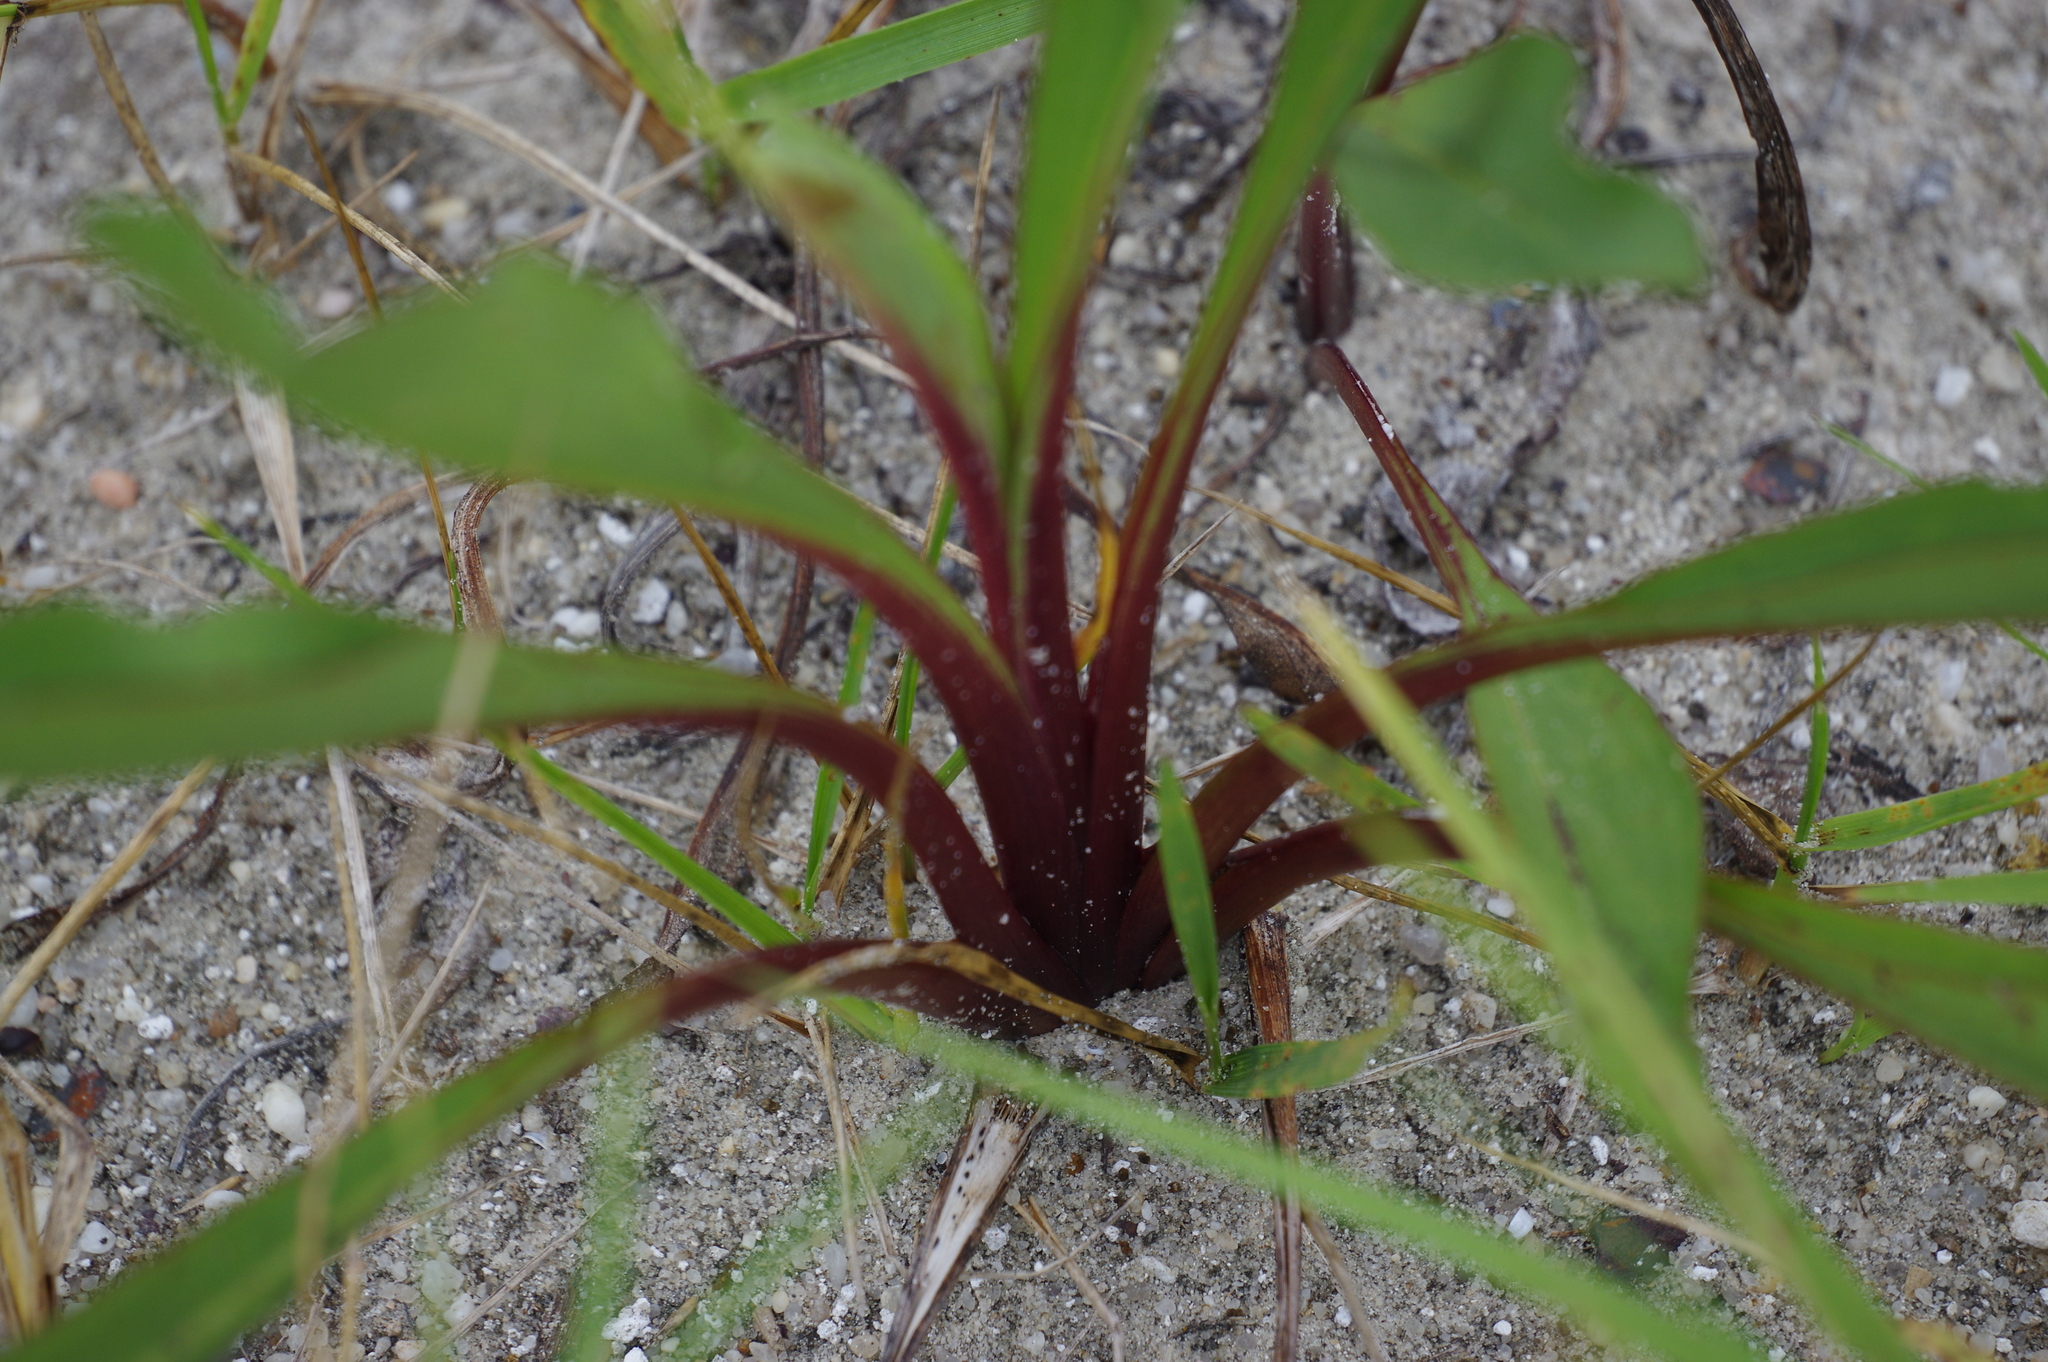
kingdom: Plantae
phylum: Tracheophyta
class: Magnoliopsida
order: Asterales
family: Asteraceae
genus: Solidago
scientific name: Solidago sempervirens
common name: Salt-marsh goldenrod
